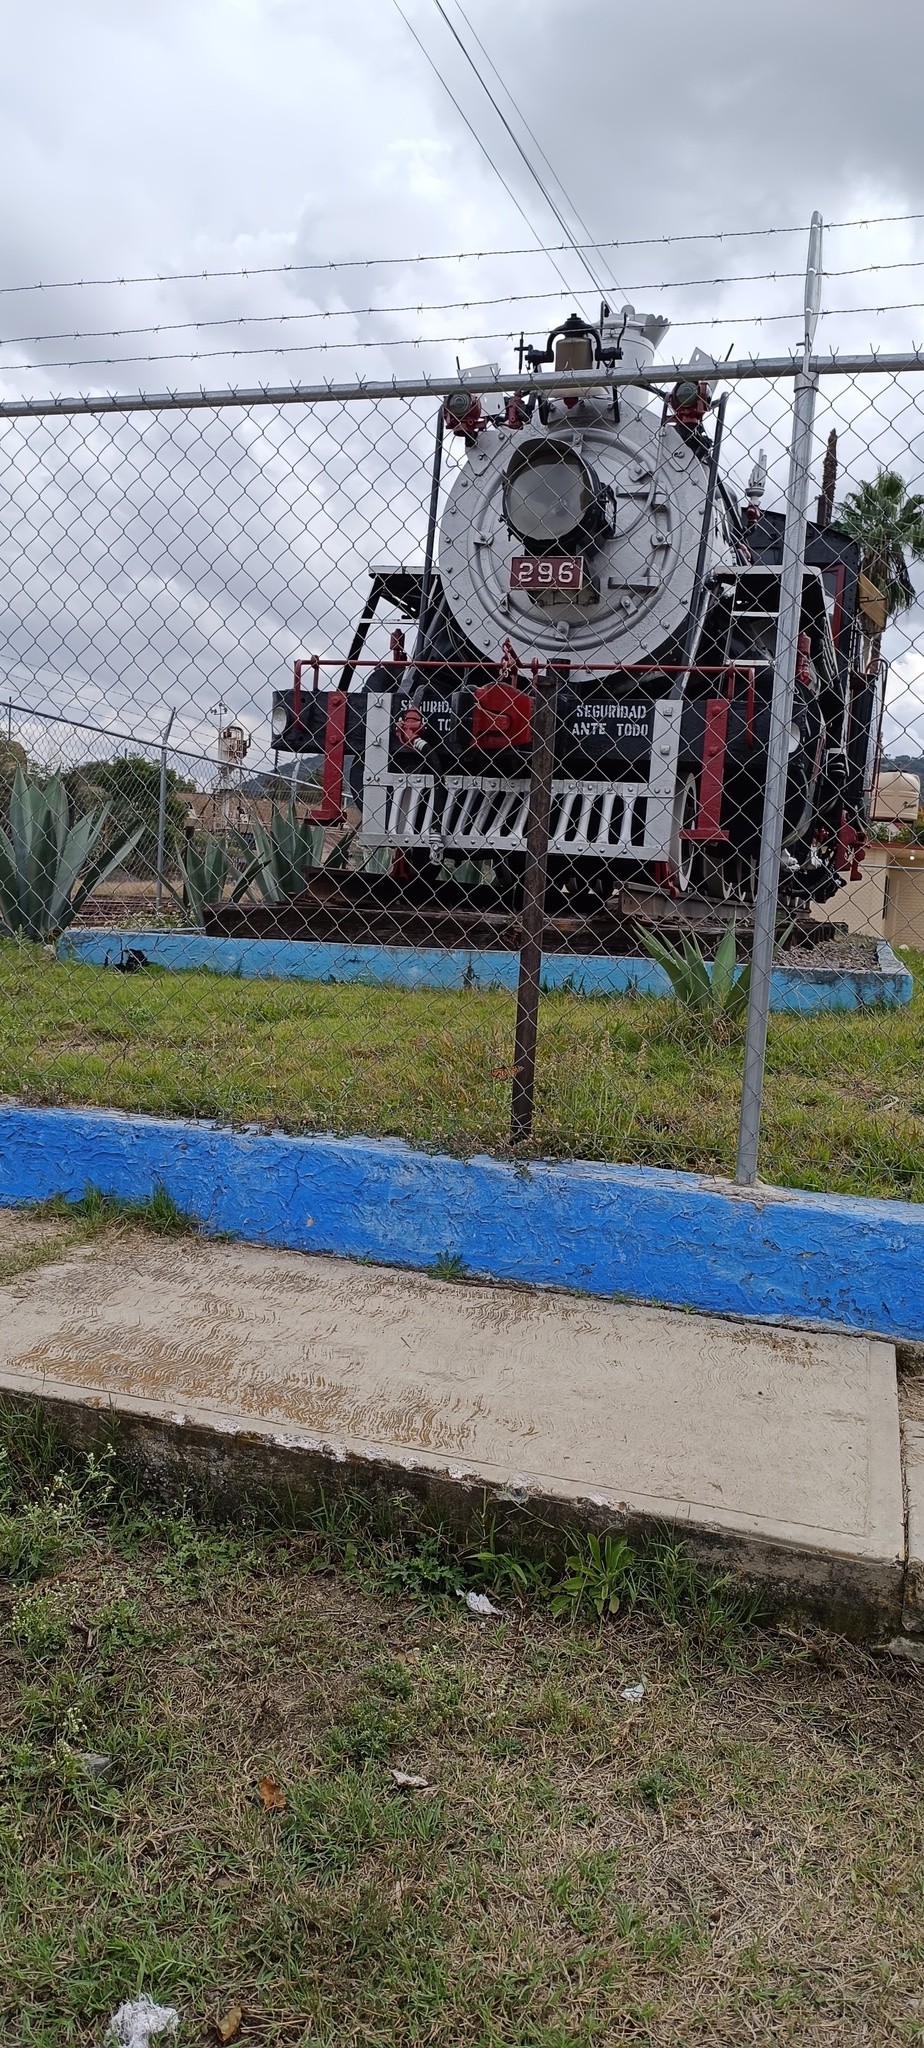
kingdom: Animalia
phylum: Arthropoda
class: Insecta
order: Lepidoptera
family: Nymphalidae
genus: Danaus
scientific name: Danaus plexippus
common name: Monarch
